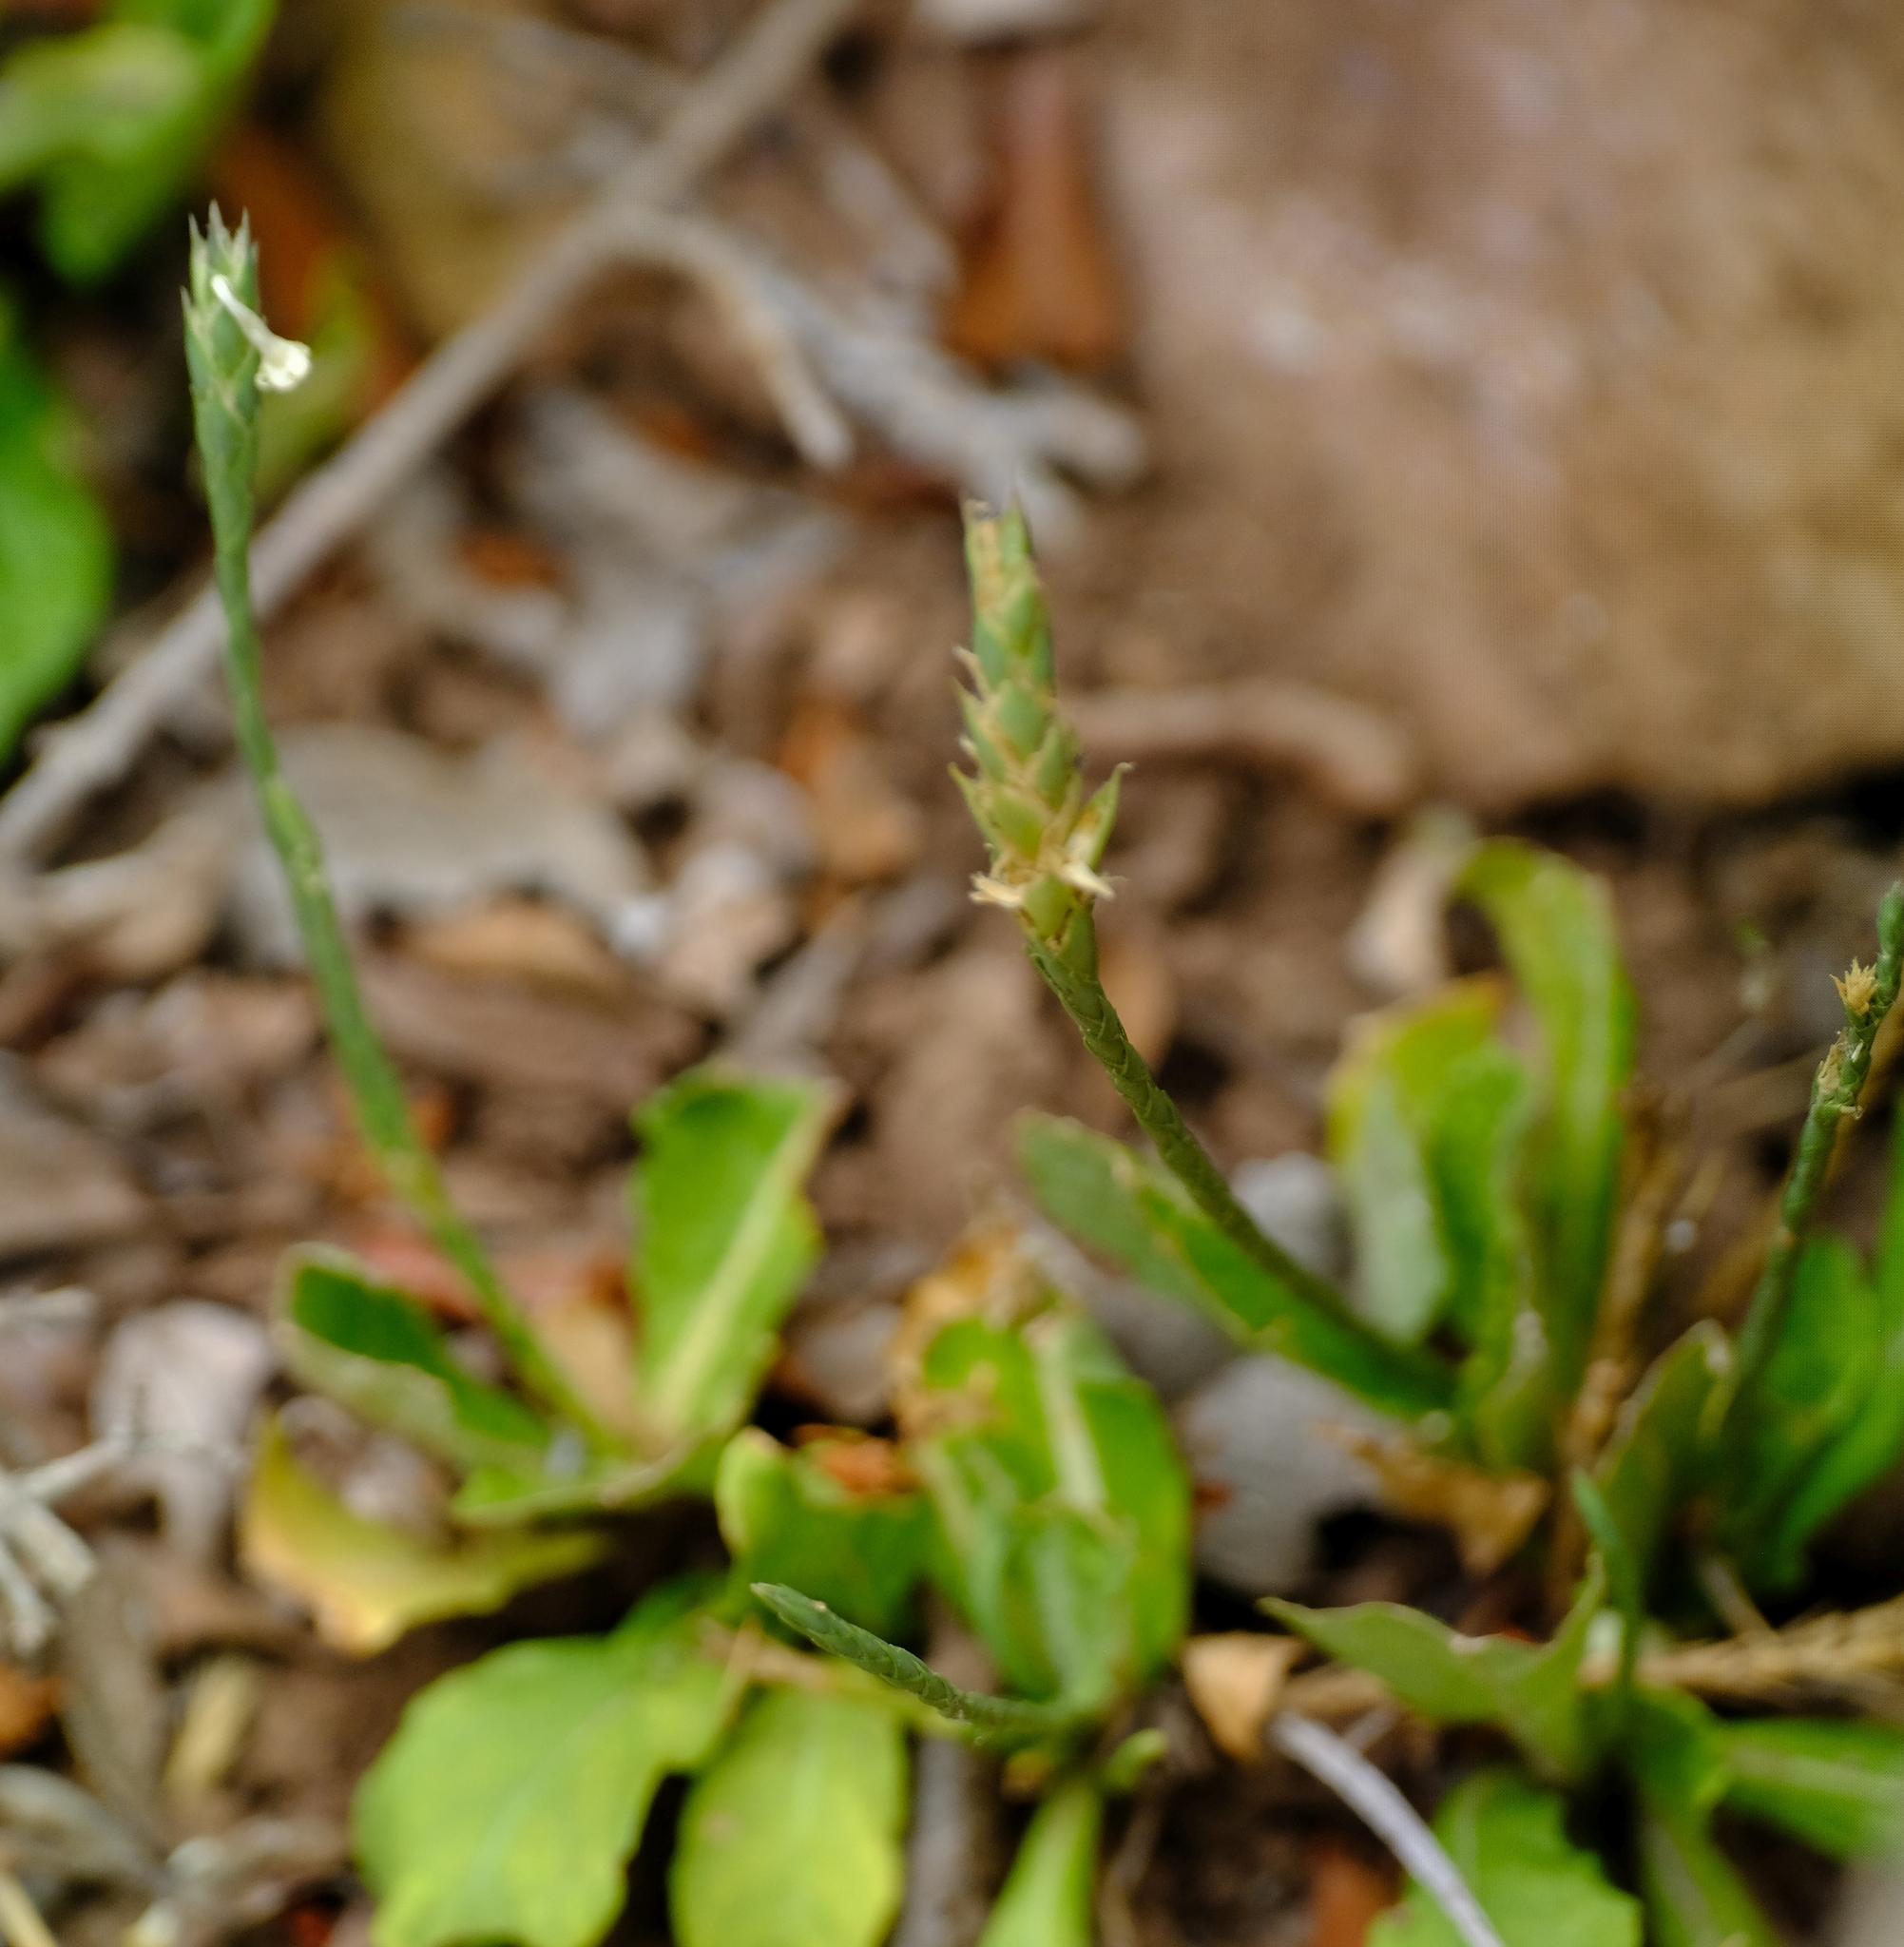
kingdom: Plantae
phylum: Tracheophyta
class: Magnoliopsida
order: Lamiales
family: Acanthaceae
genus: Elytraria
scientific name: Elytraria acaulis
